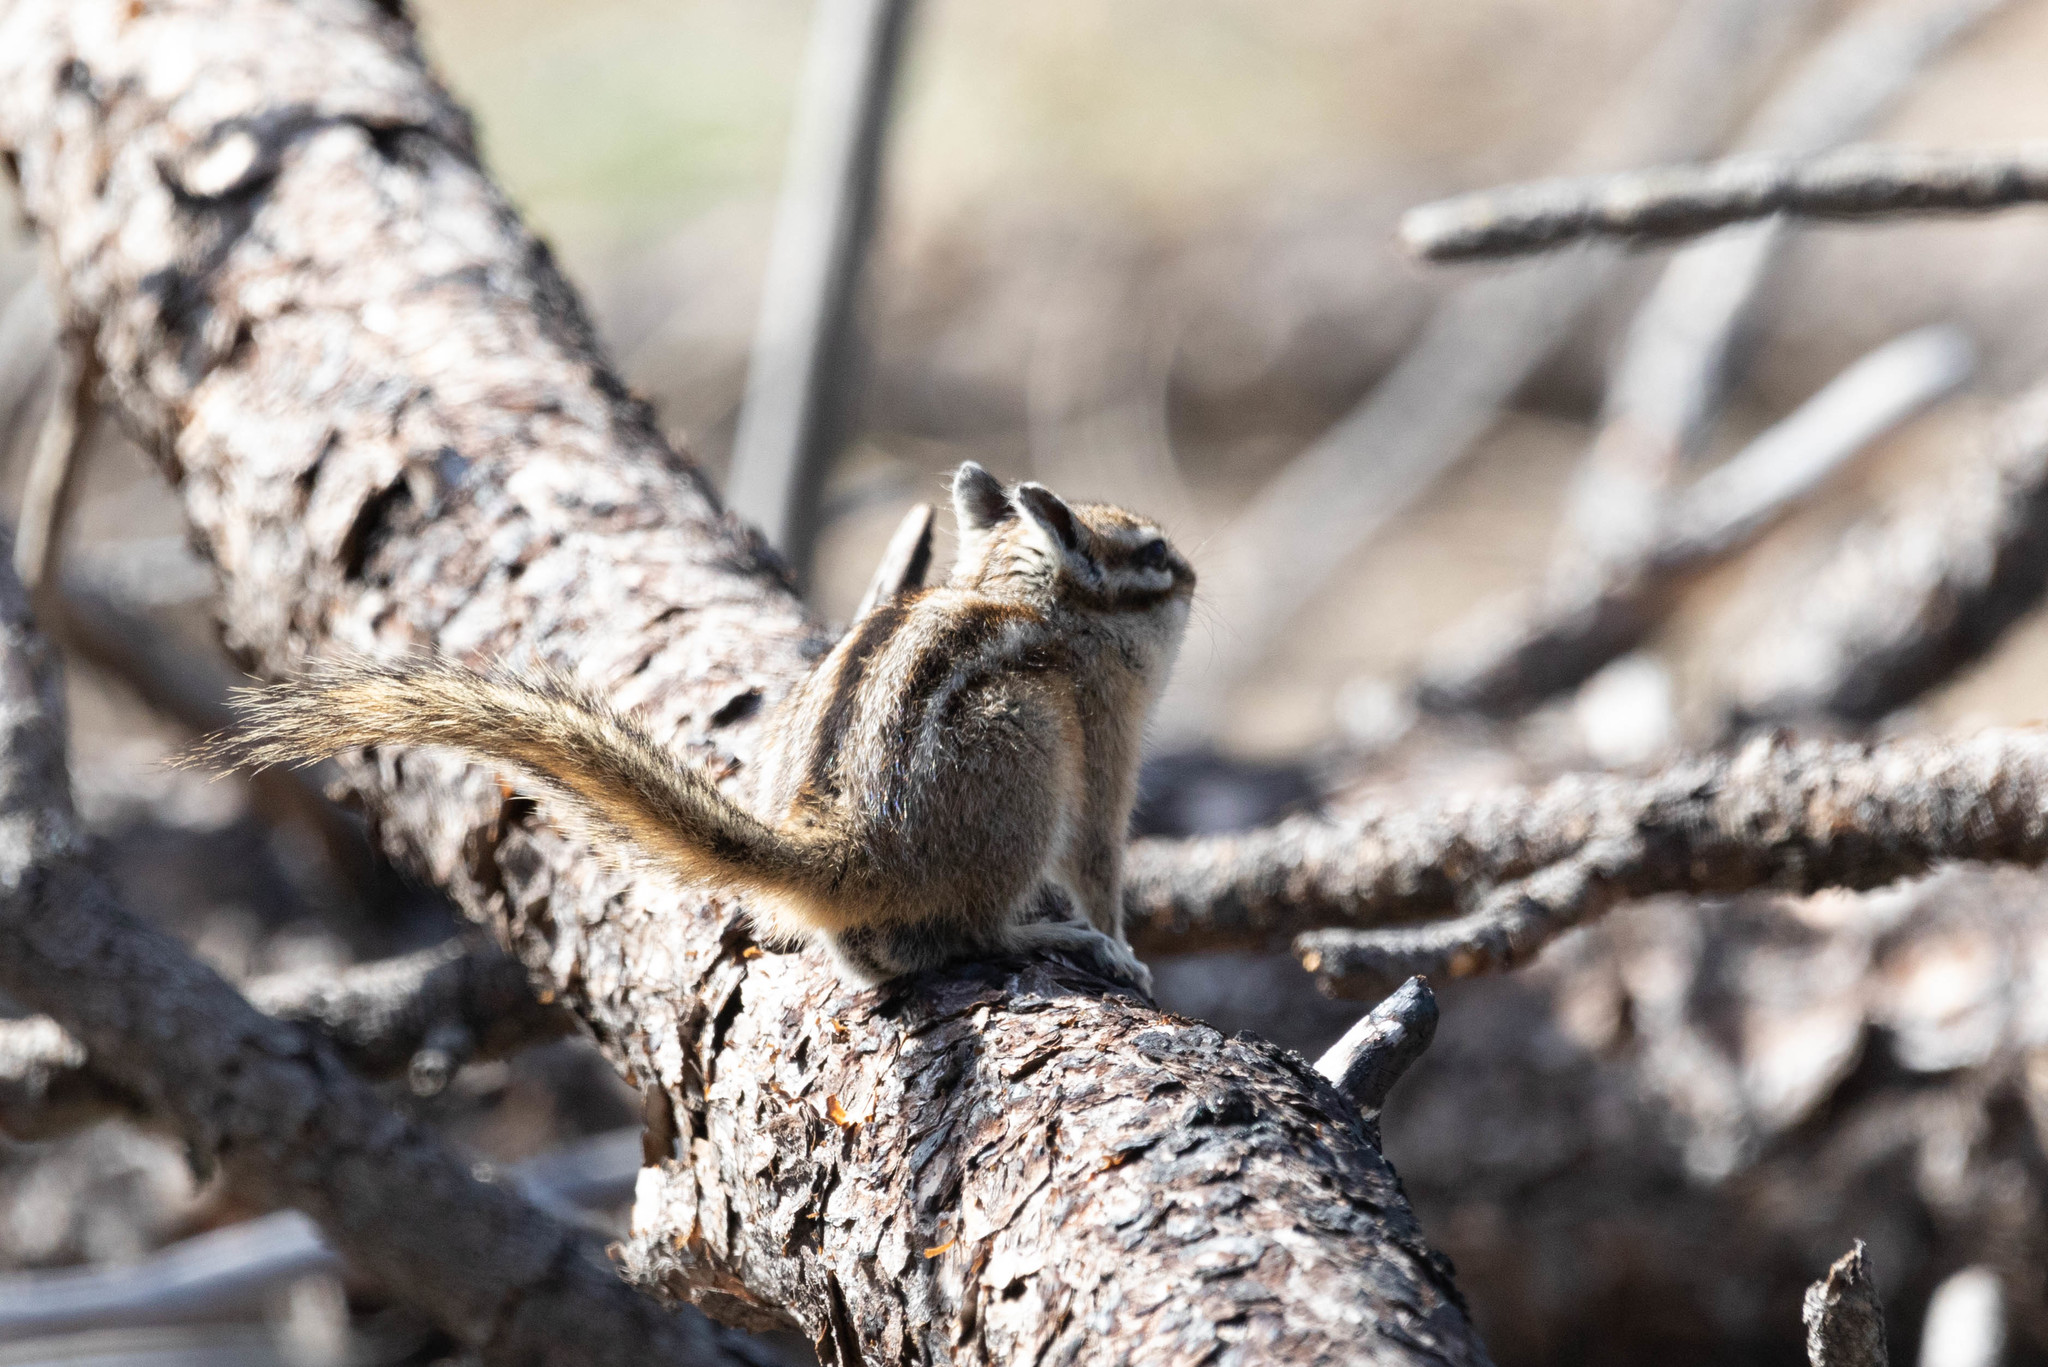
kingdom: Animalia
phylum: Chordata
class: Mammalia
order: Rodentia
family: Sciuridae
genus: Tamias
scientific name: Tamias amoenus
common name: Yellow-pine chipmunk
